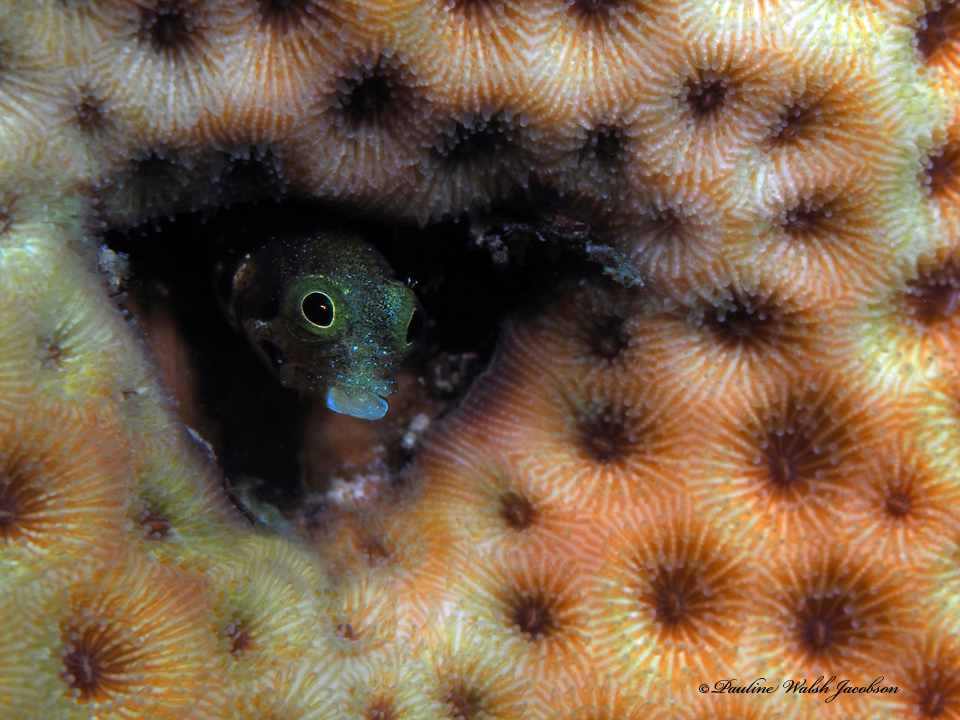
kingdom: Animalia
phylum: Chordata
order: Perciformes
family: Chaenopsidae
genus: Acanthemblemaria
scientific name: Acanthemblemaria spinosa
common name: Spinyhead blenny
